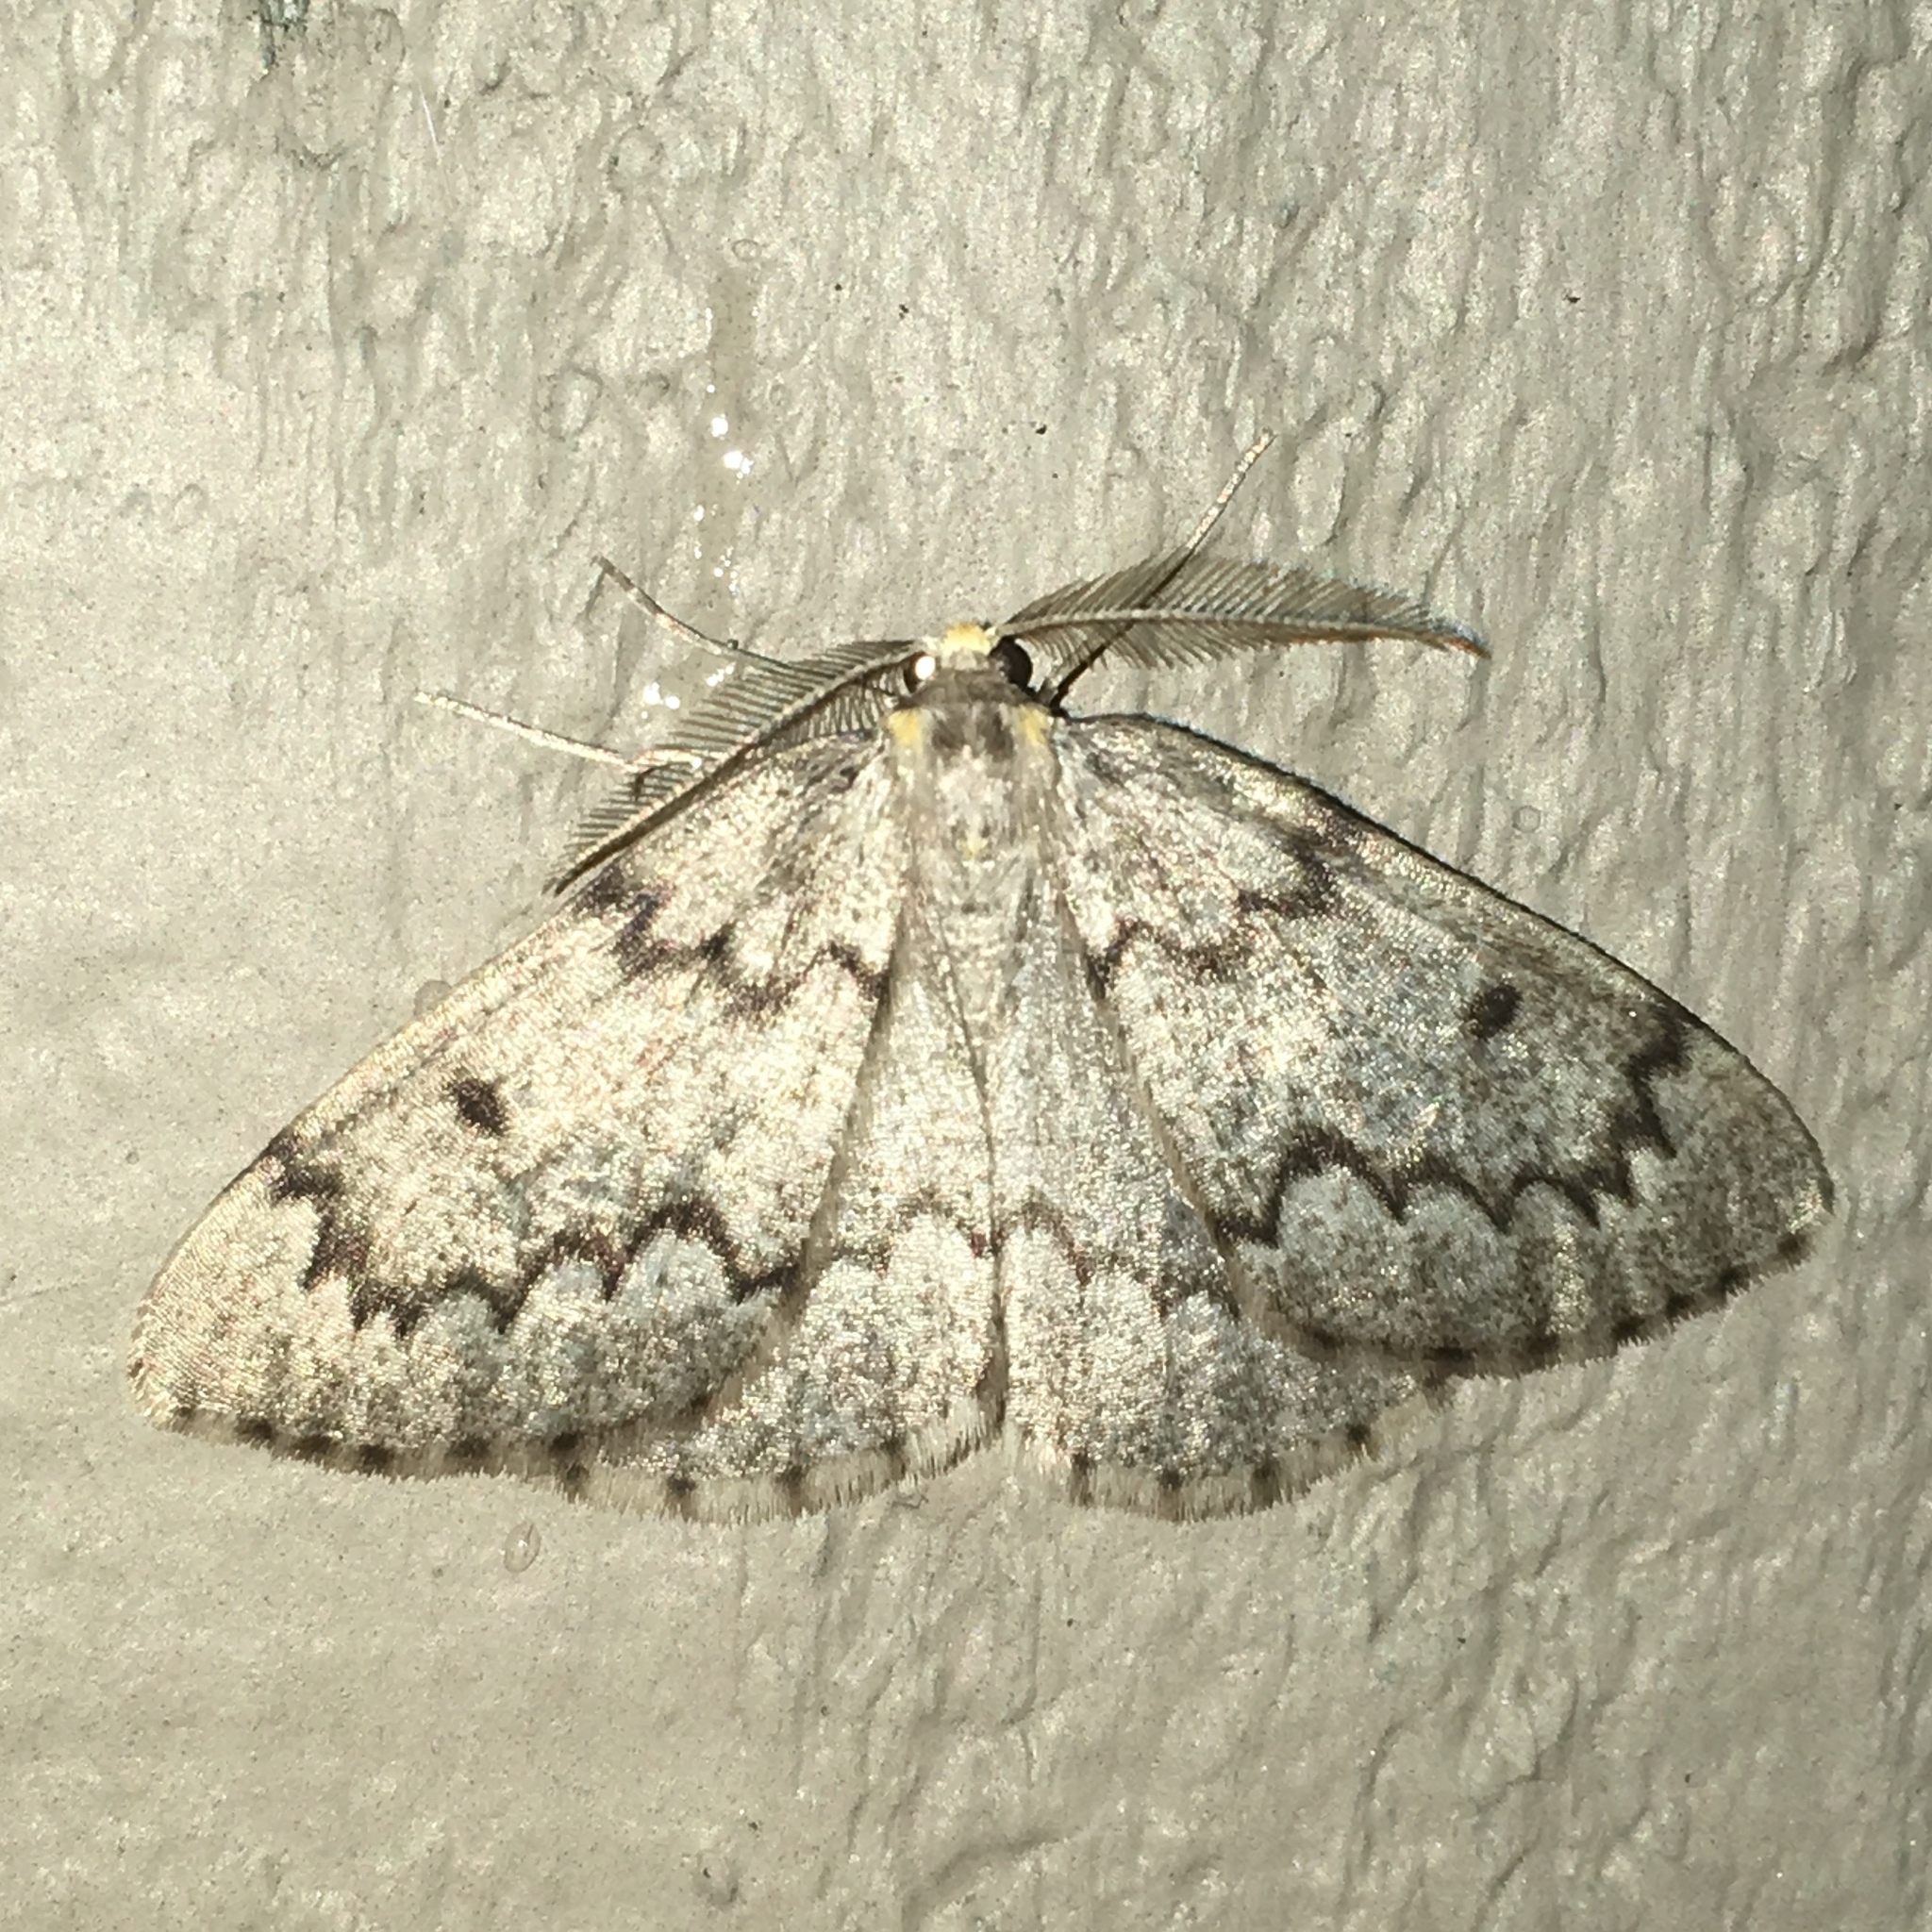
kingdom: Animalia
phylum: Arthropoda
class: Insecta
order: Lepidoptera
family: Geometridae
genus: Nepytia
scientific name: Nepytia canosaria
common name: False hemlock looper
